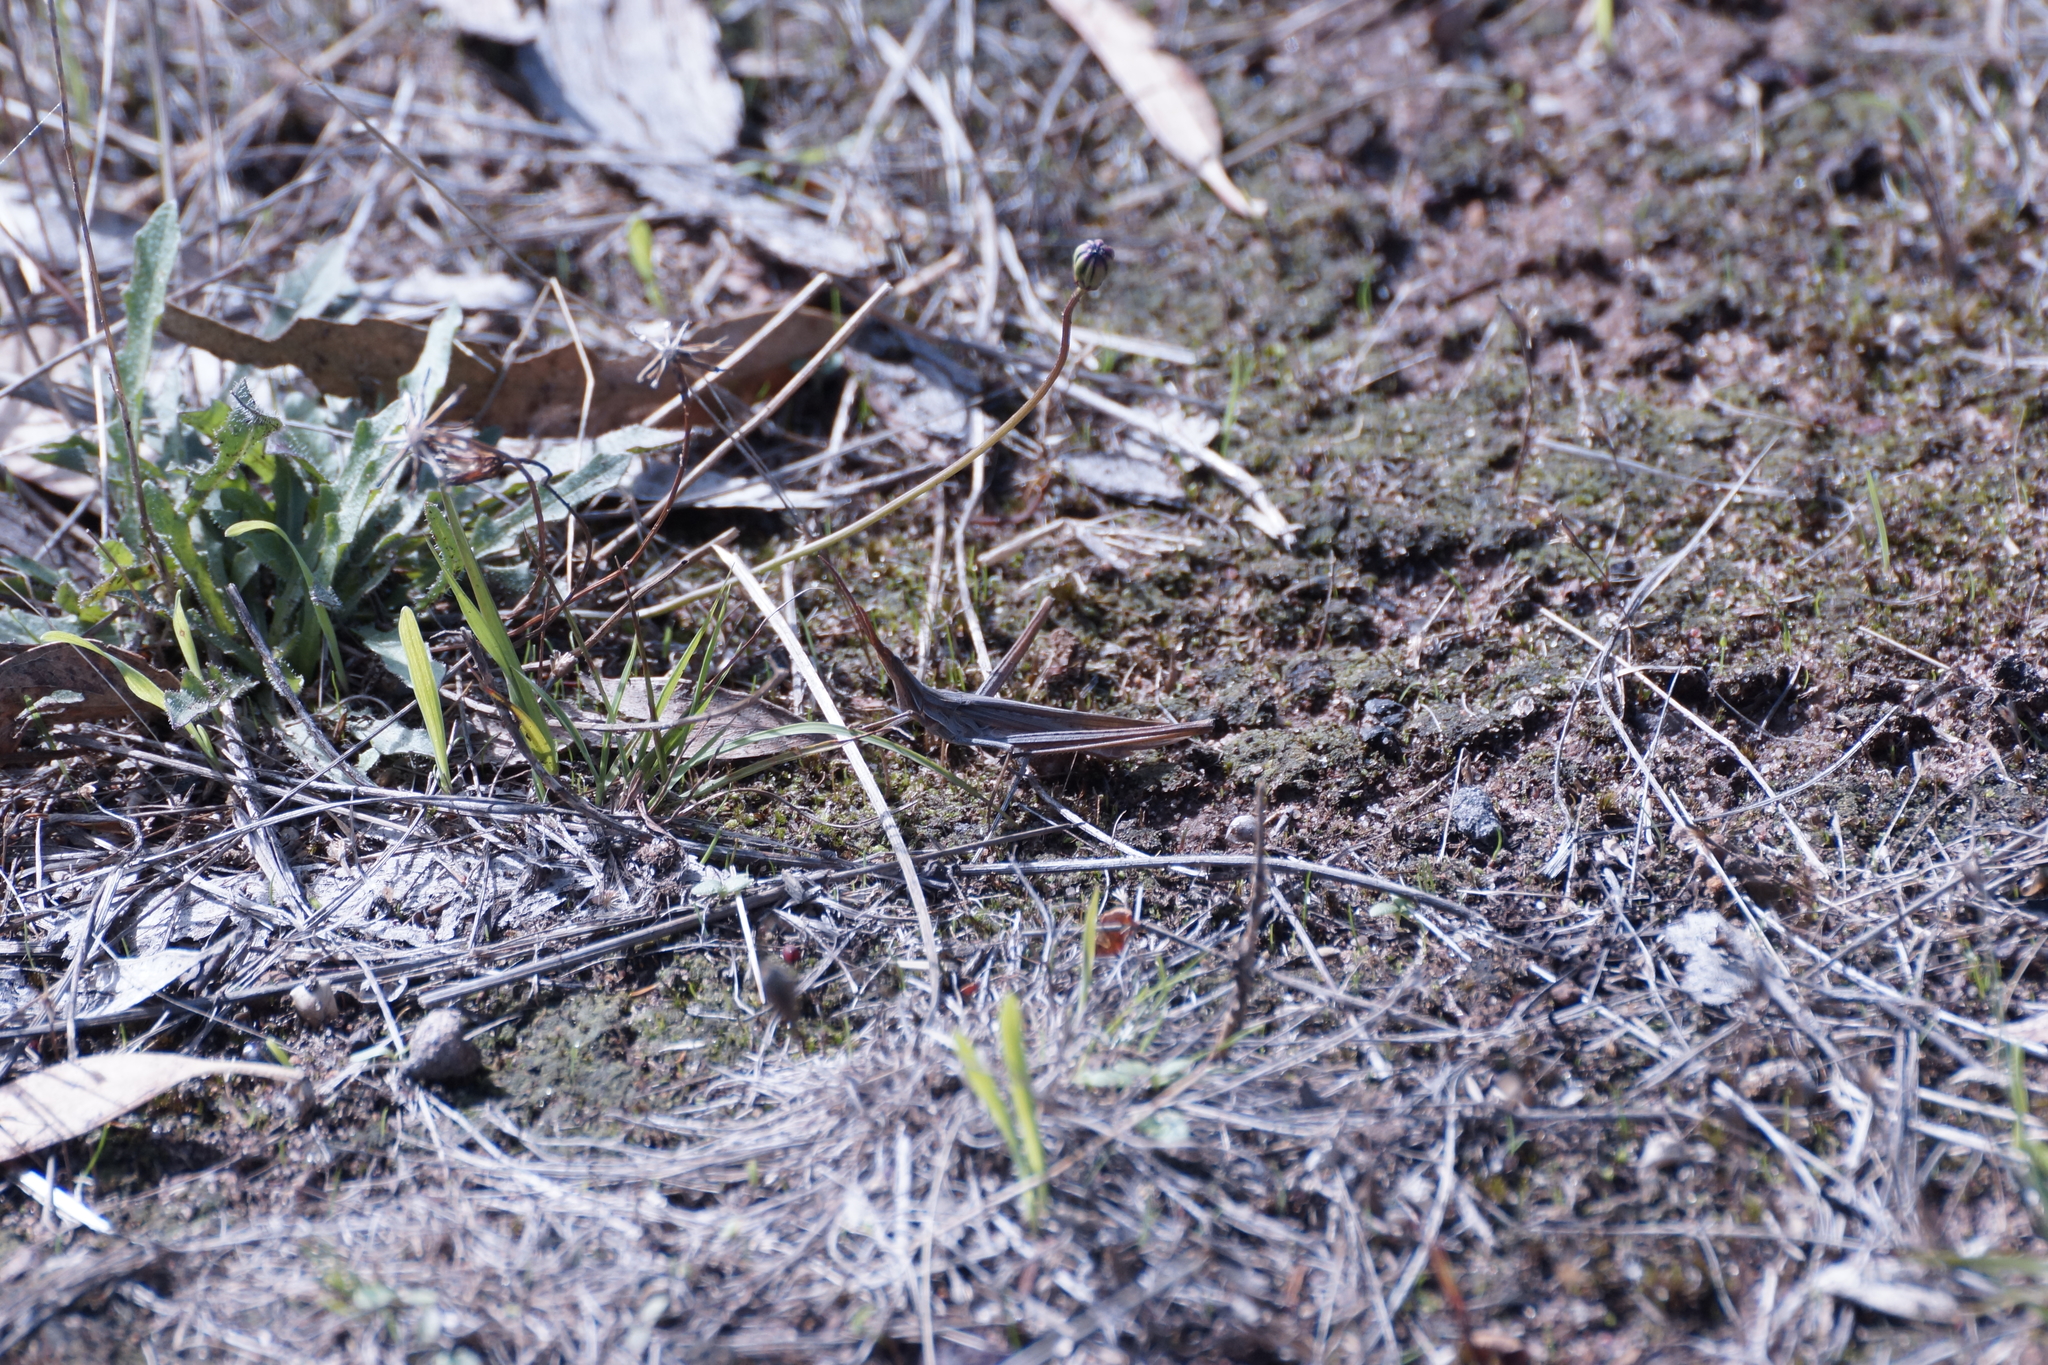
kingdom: Animalia
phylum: Arthropoda
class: Insecta
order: Orthoptera
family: Acrididae
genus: Acrida
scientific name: Acrida conica
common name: Giant green slantface
